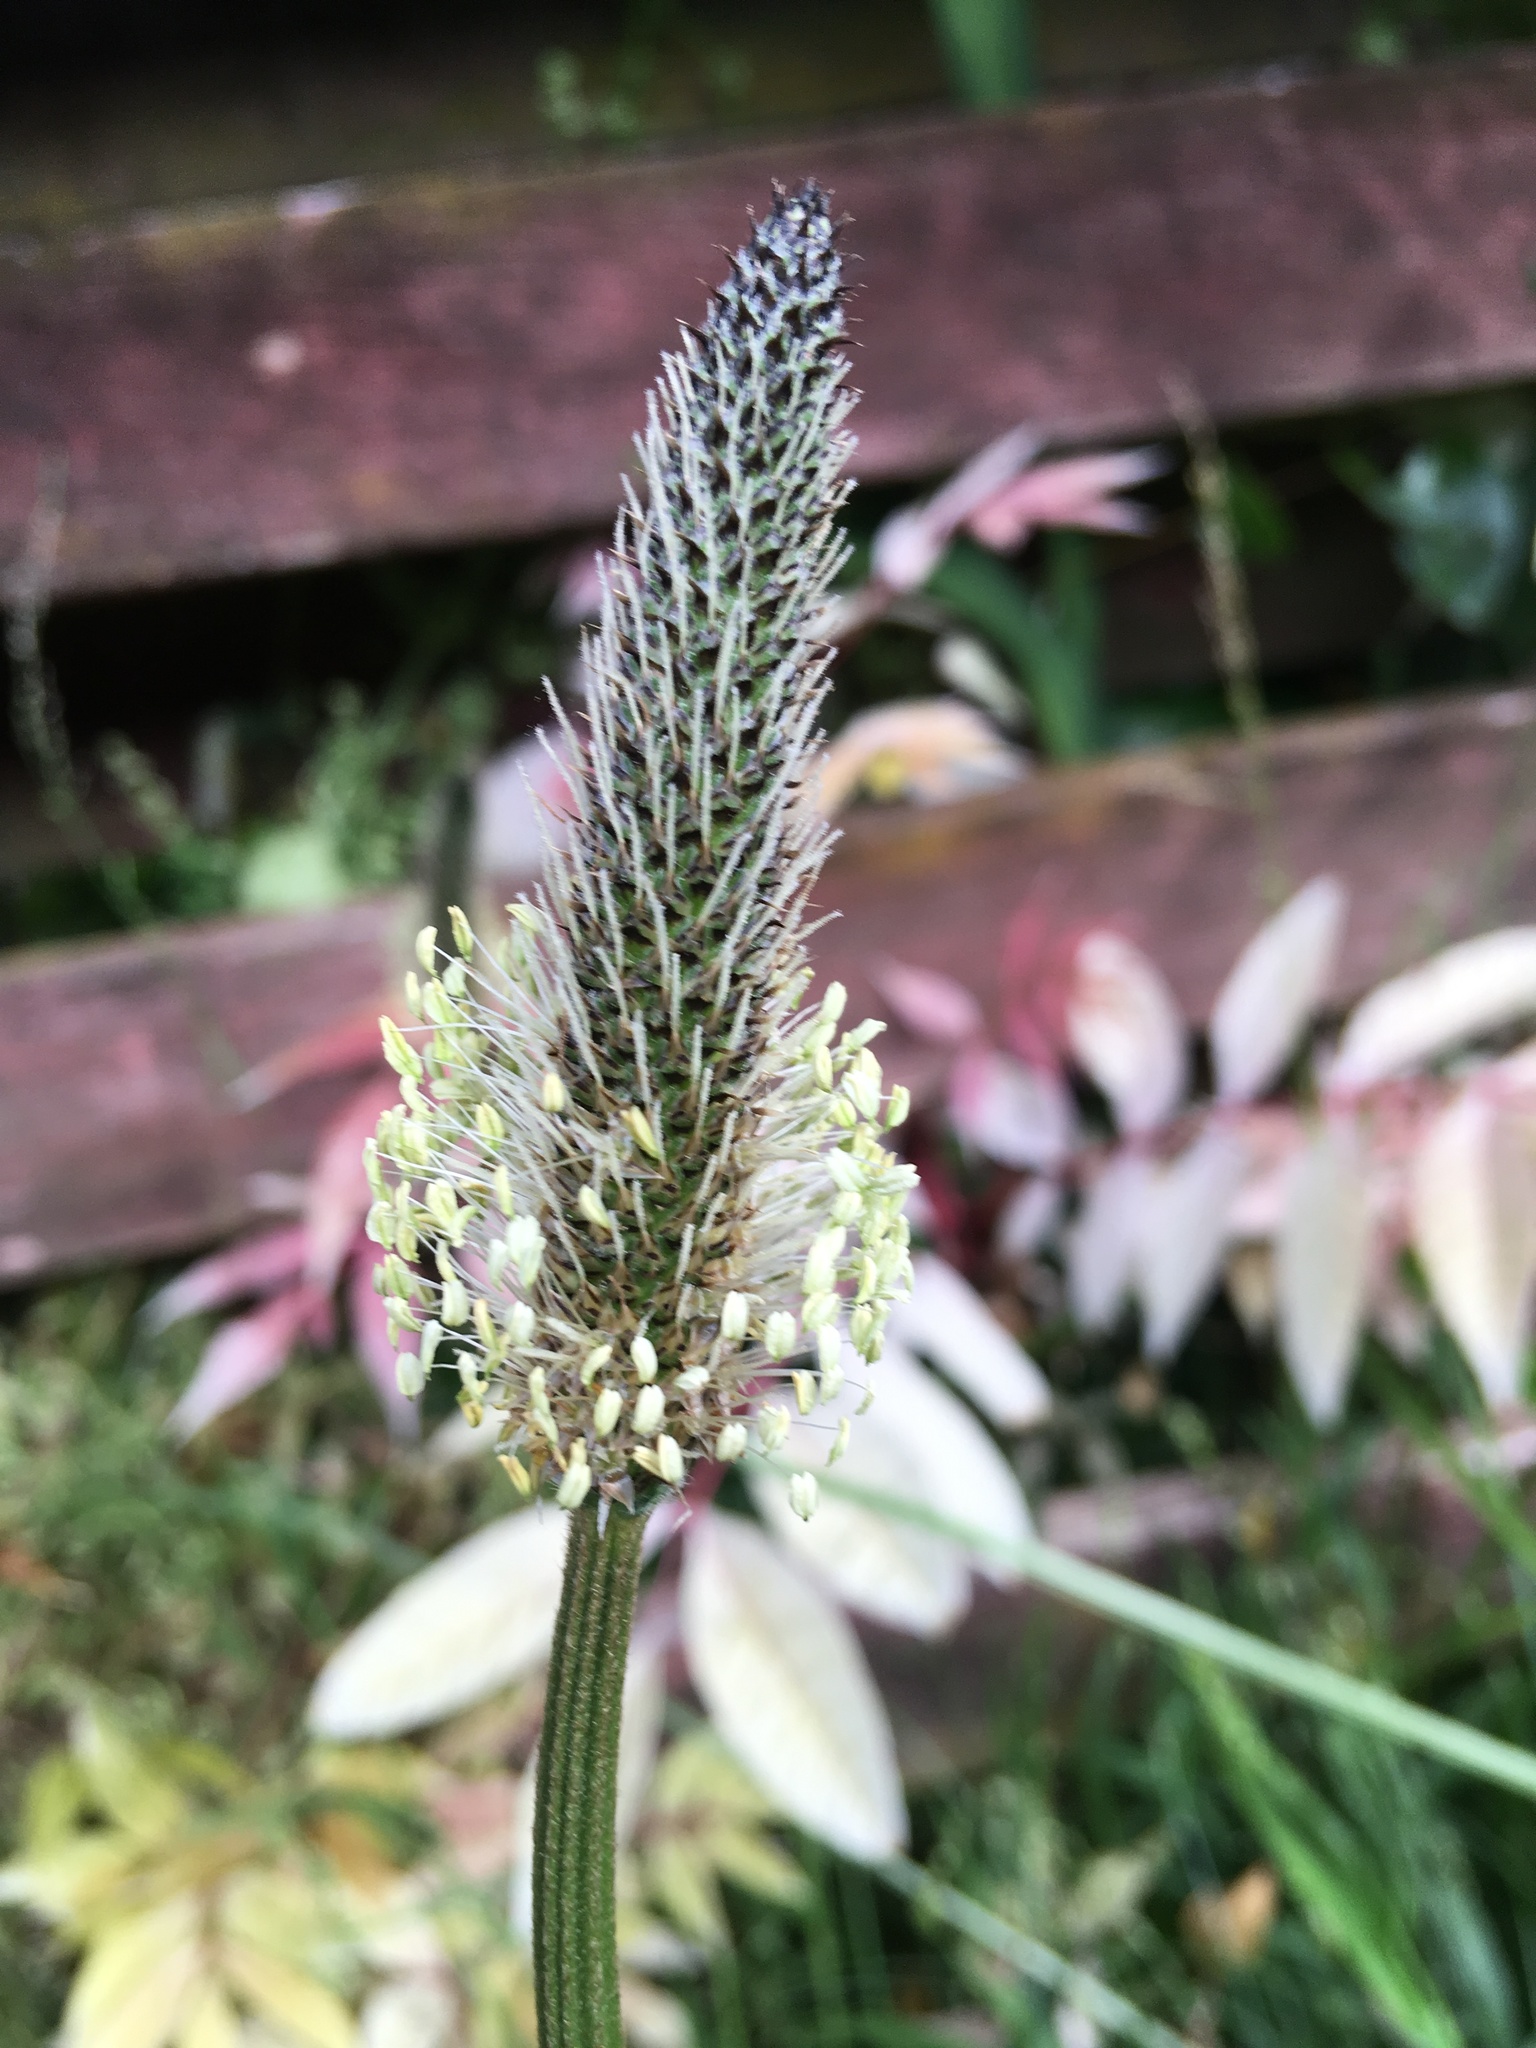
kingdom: Plantae
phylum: Tracheophyta
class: Magnoliopsida
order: Lamiales
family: Plantaginaceae
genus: Plantago
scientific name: Plantago lanceolata
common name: Ribwort plantain
